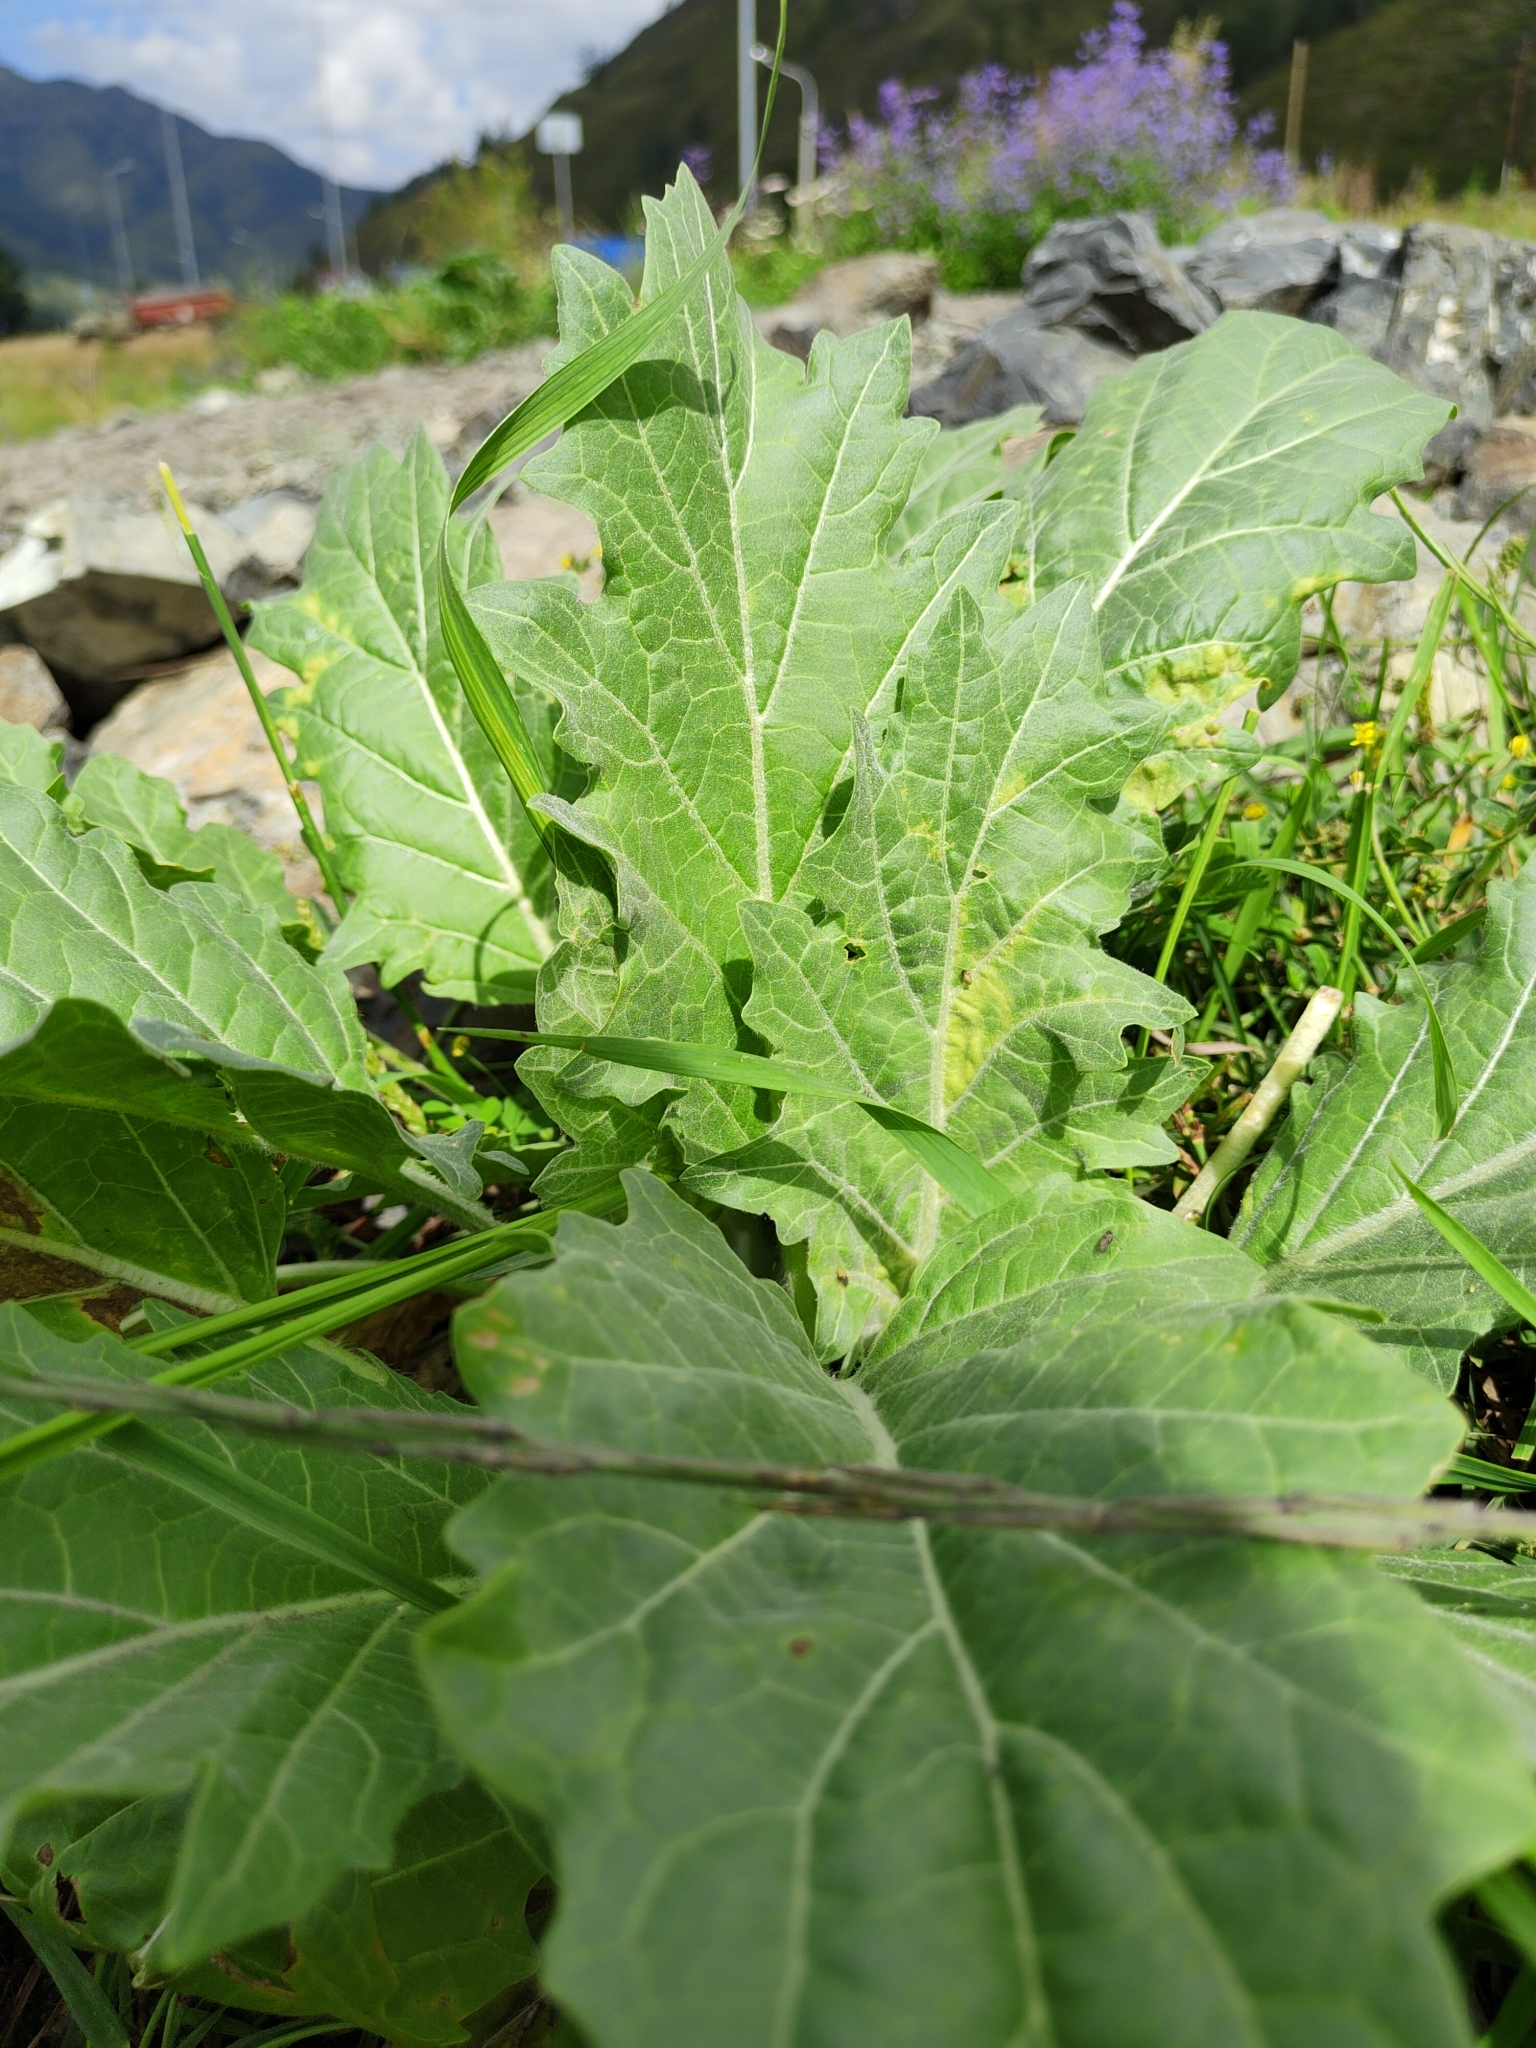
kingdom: Plantae
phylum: Tracheophyta
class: Magnoliopsida
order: Solanales
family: Solanaceae
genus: Hyoscyamus
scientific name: Hyoscyamus niger
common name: Henbane
